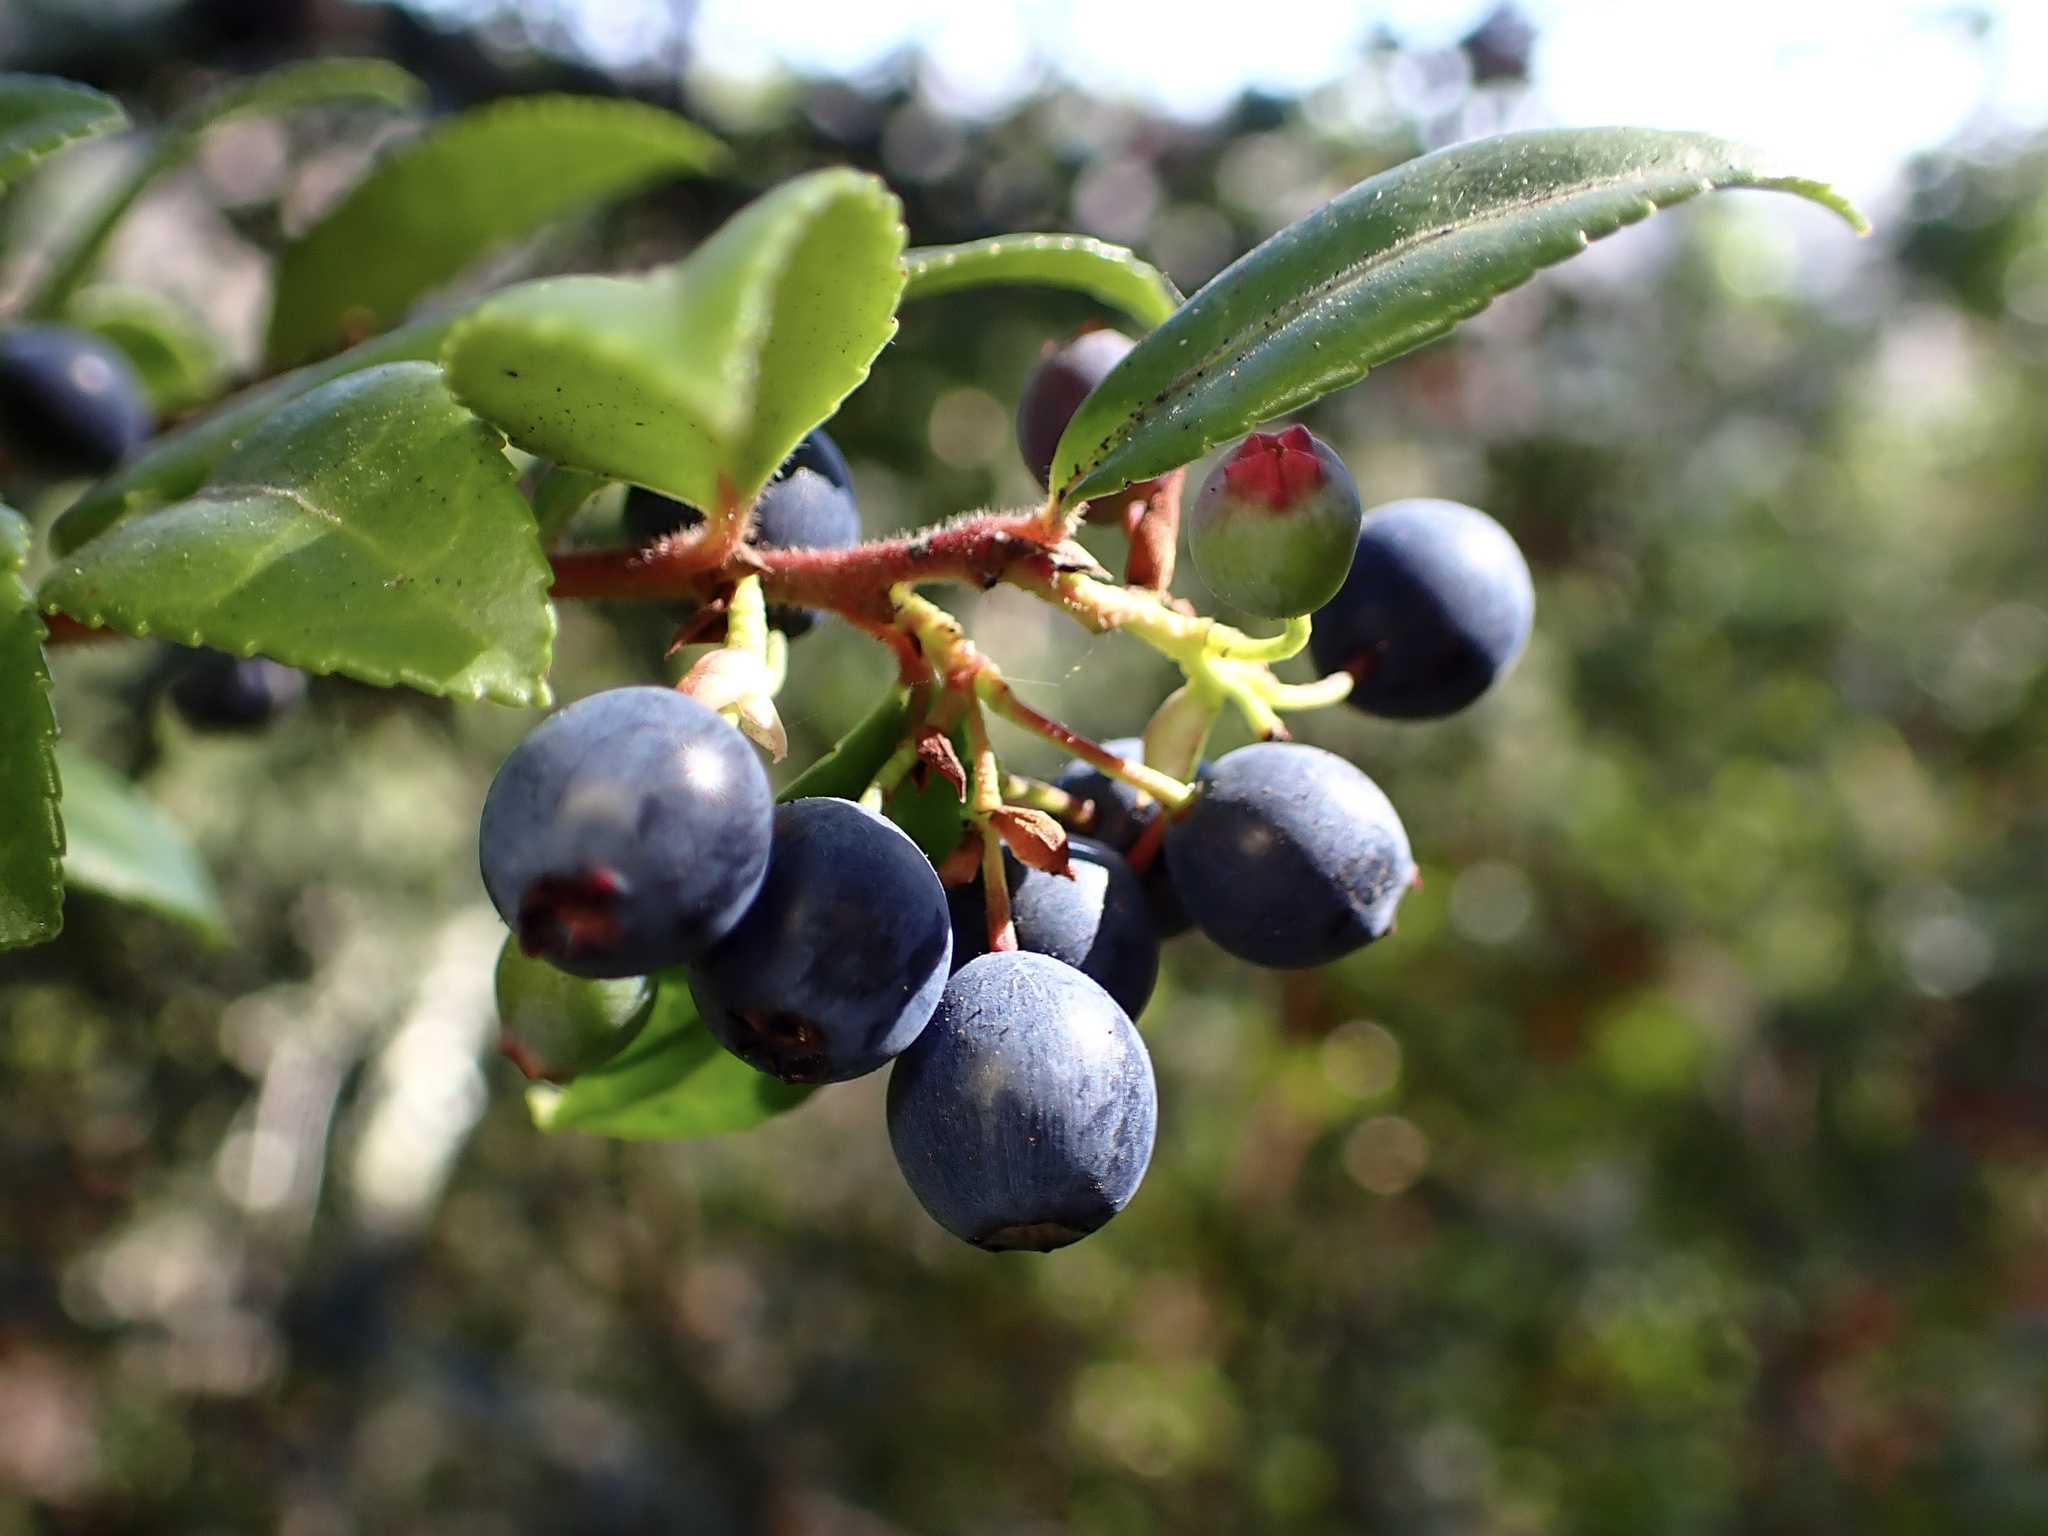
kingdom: Plantae
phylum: Tracheophyta
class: Magnoliopsida
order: Ericales
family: Ericaceae
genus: Vaccinium
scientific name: Vaccinium ovatum
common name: California-huckleberry
